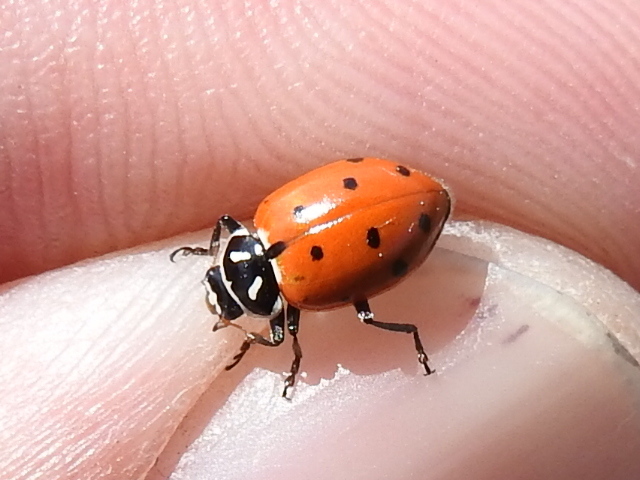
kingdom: Animalia
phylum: Arthropoda
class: Insecta
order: Coleoptera
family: Coccinellidae
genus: Hippodamia
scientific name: Hippodamia convergens
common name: Convergent lady beetle
